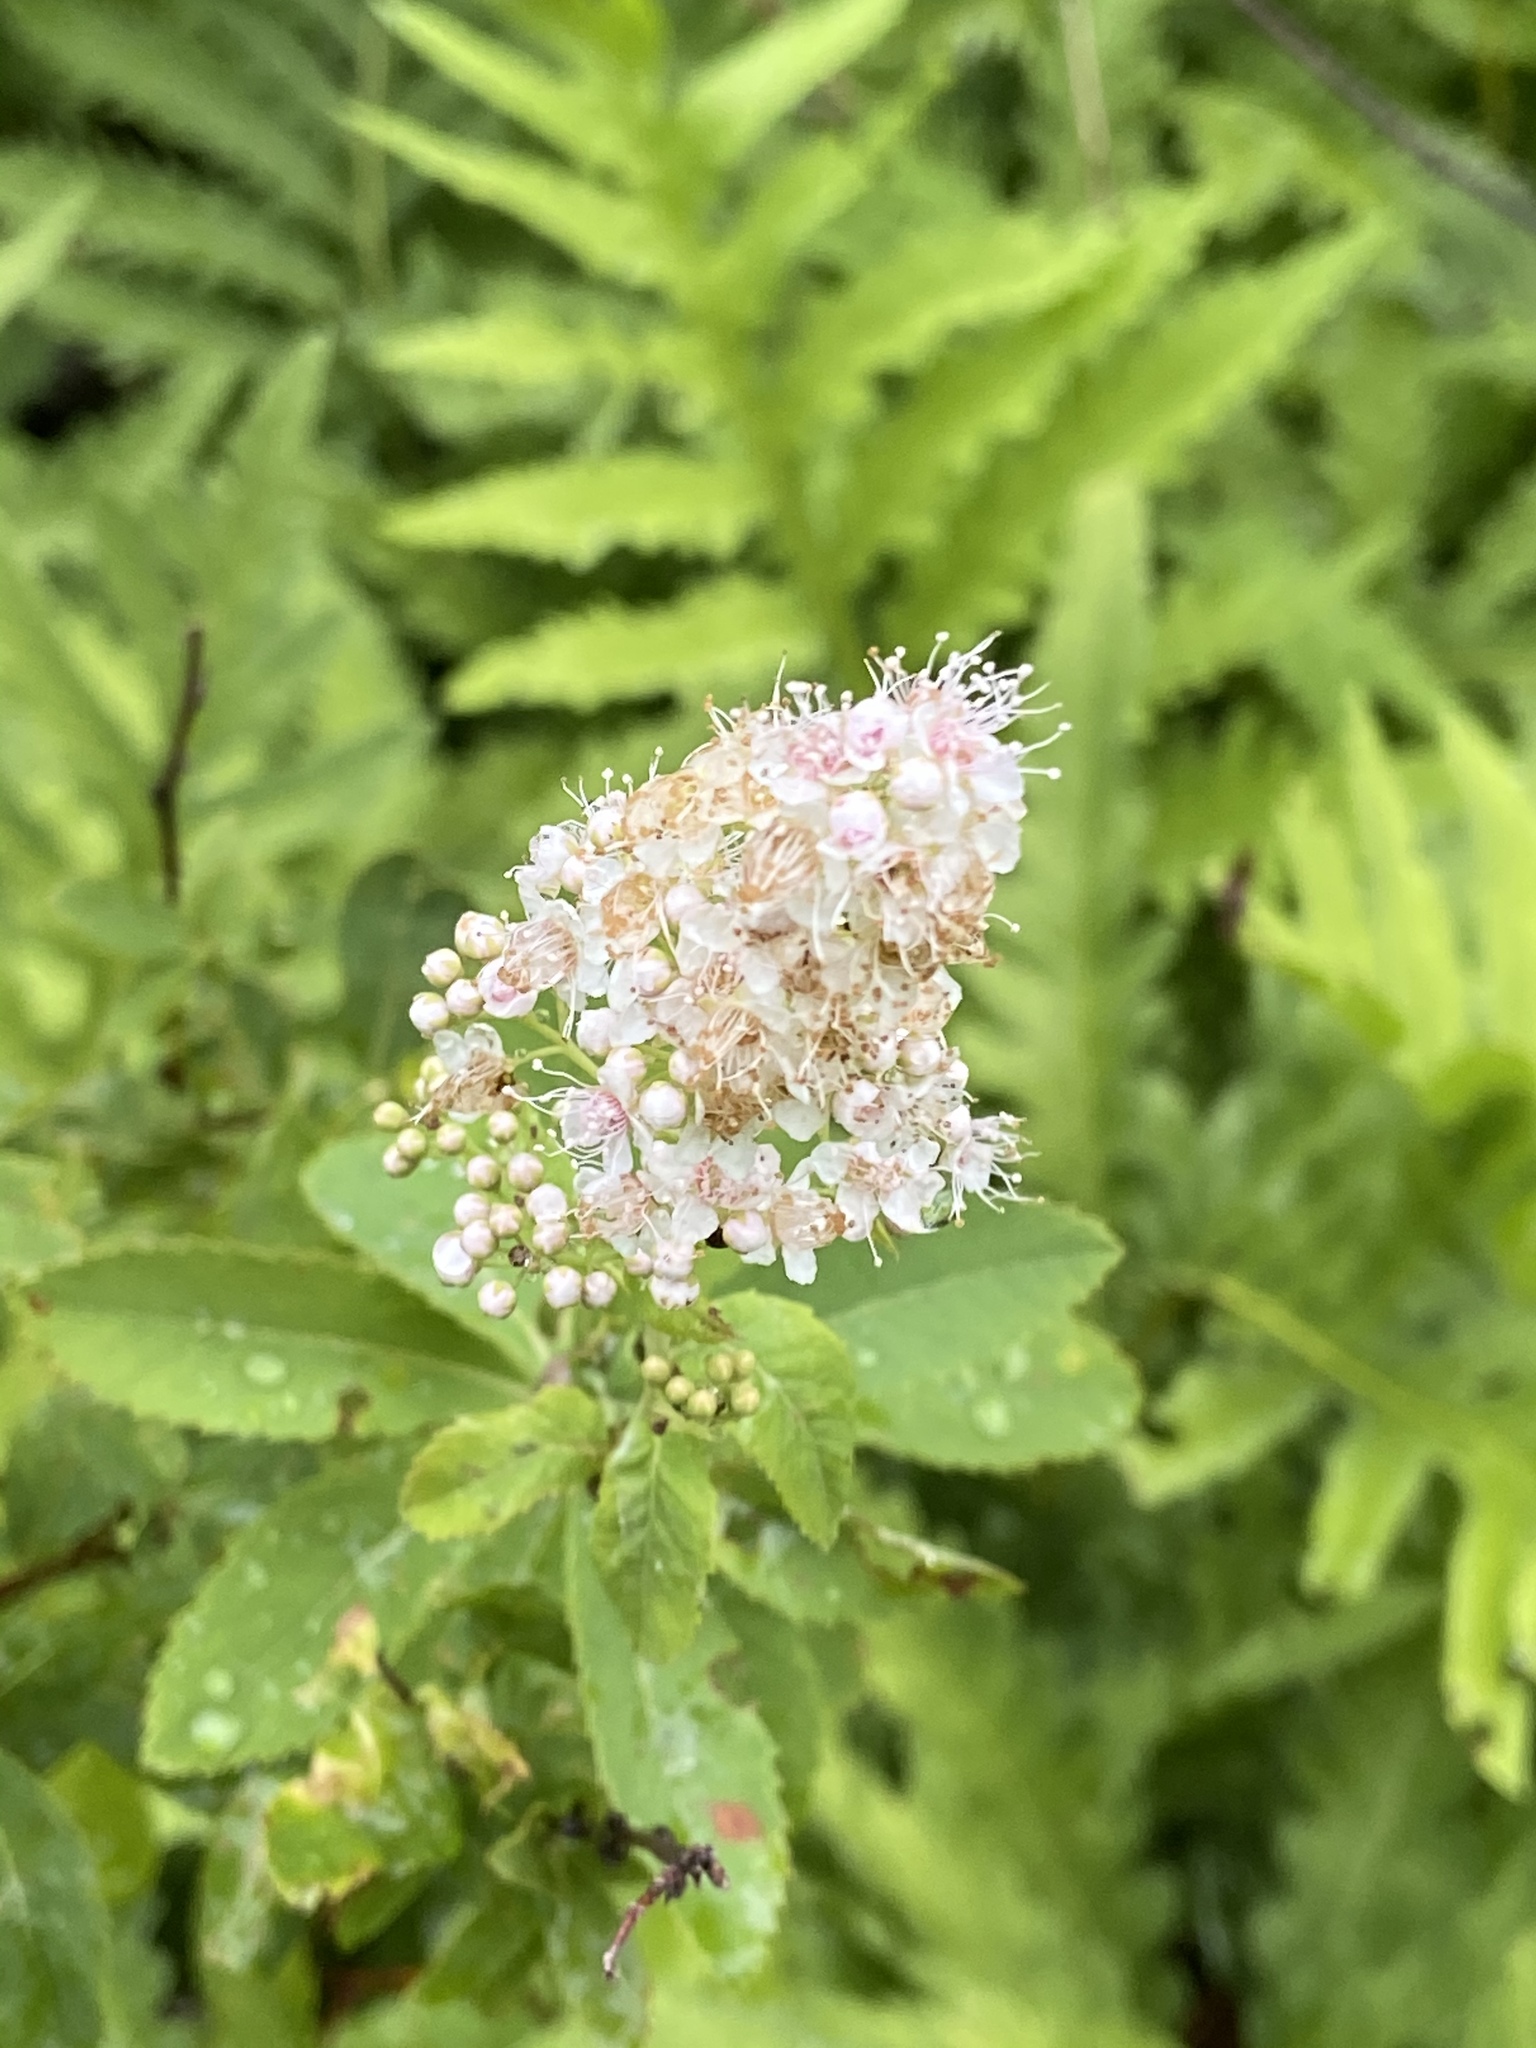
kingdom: Plantae
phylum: Tracheophyta
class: Magnoliopsida
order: Rosales
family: Rosaceae
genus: Spiraea
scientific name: Spiraea alba
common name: Pale bridewort
